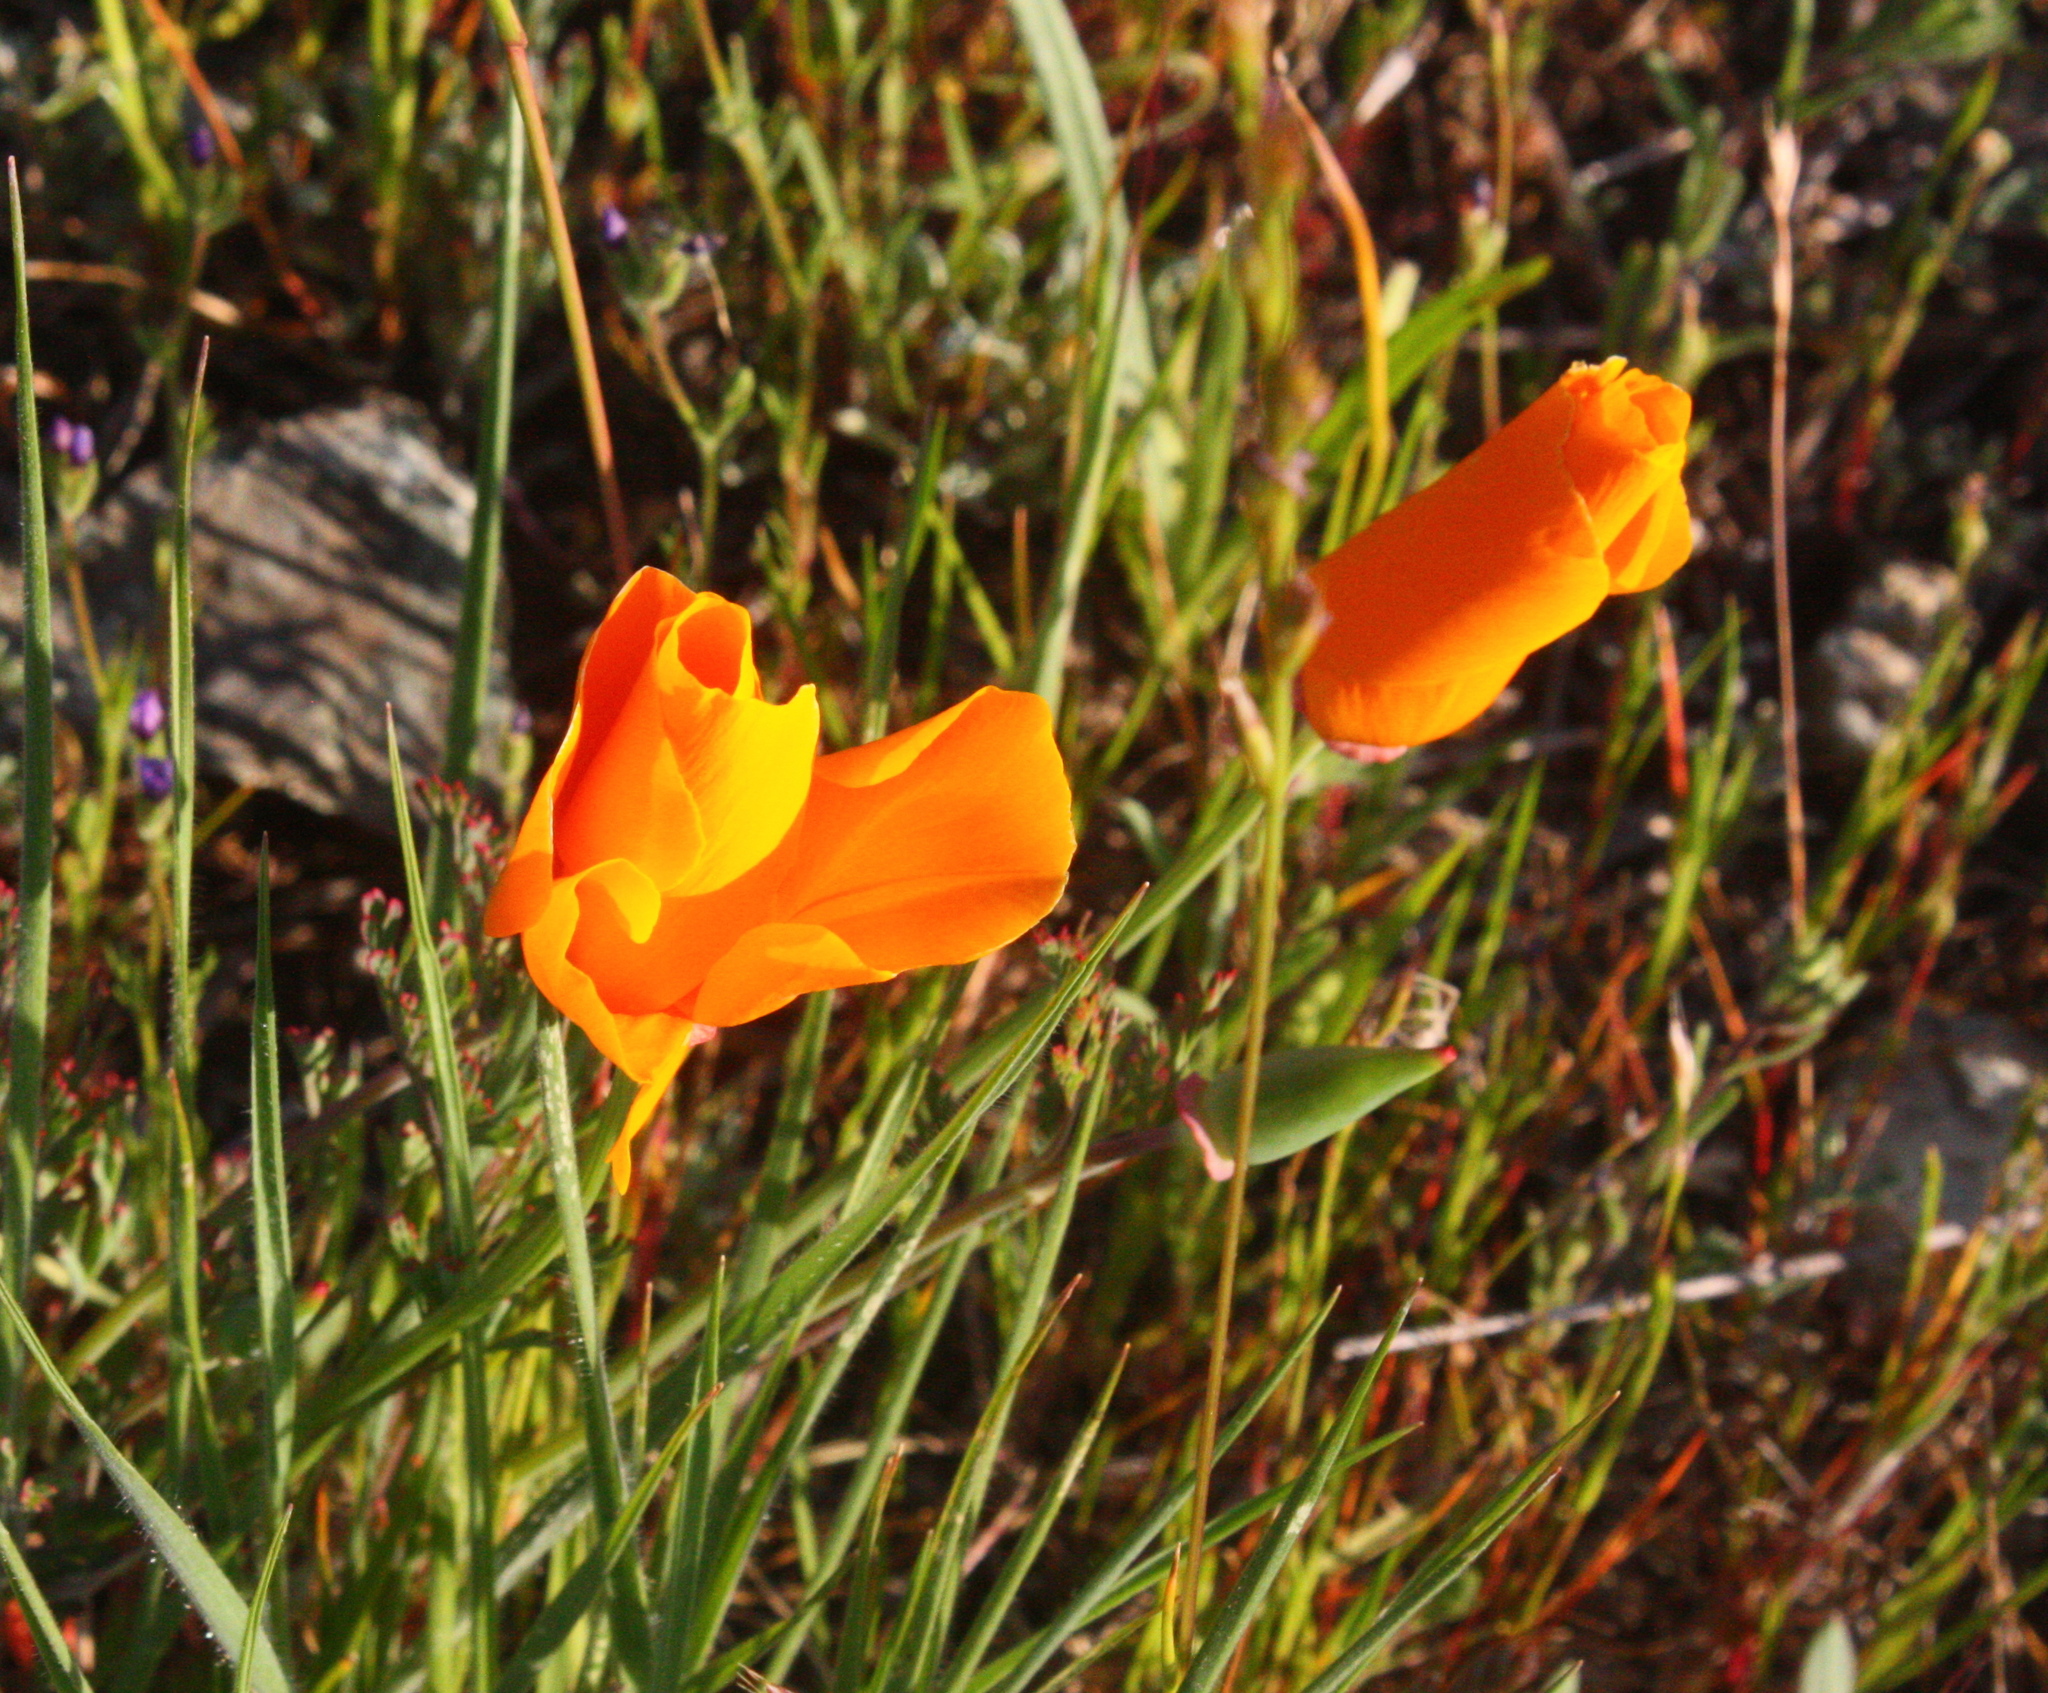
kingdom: Plantae
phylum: Tracheophyta
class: Magnoliopsida
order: Ranunculales
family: Papaveraceae
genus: Eschscholzia
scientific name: Eschscholzia californica
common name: California poppy
